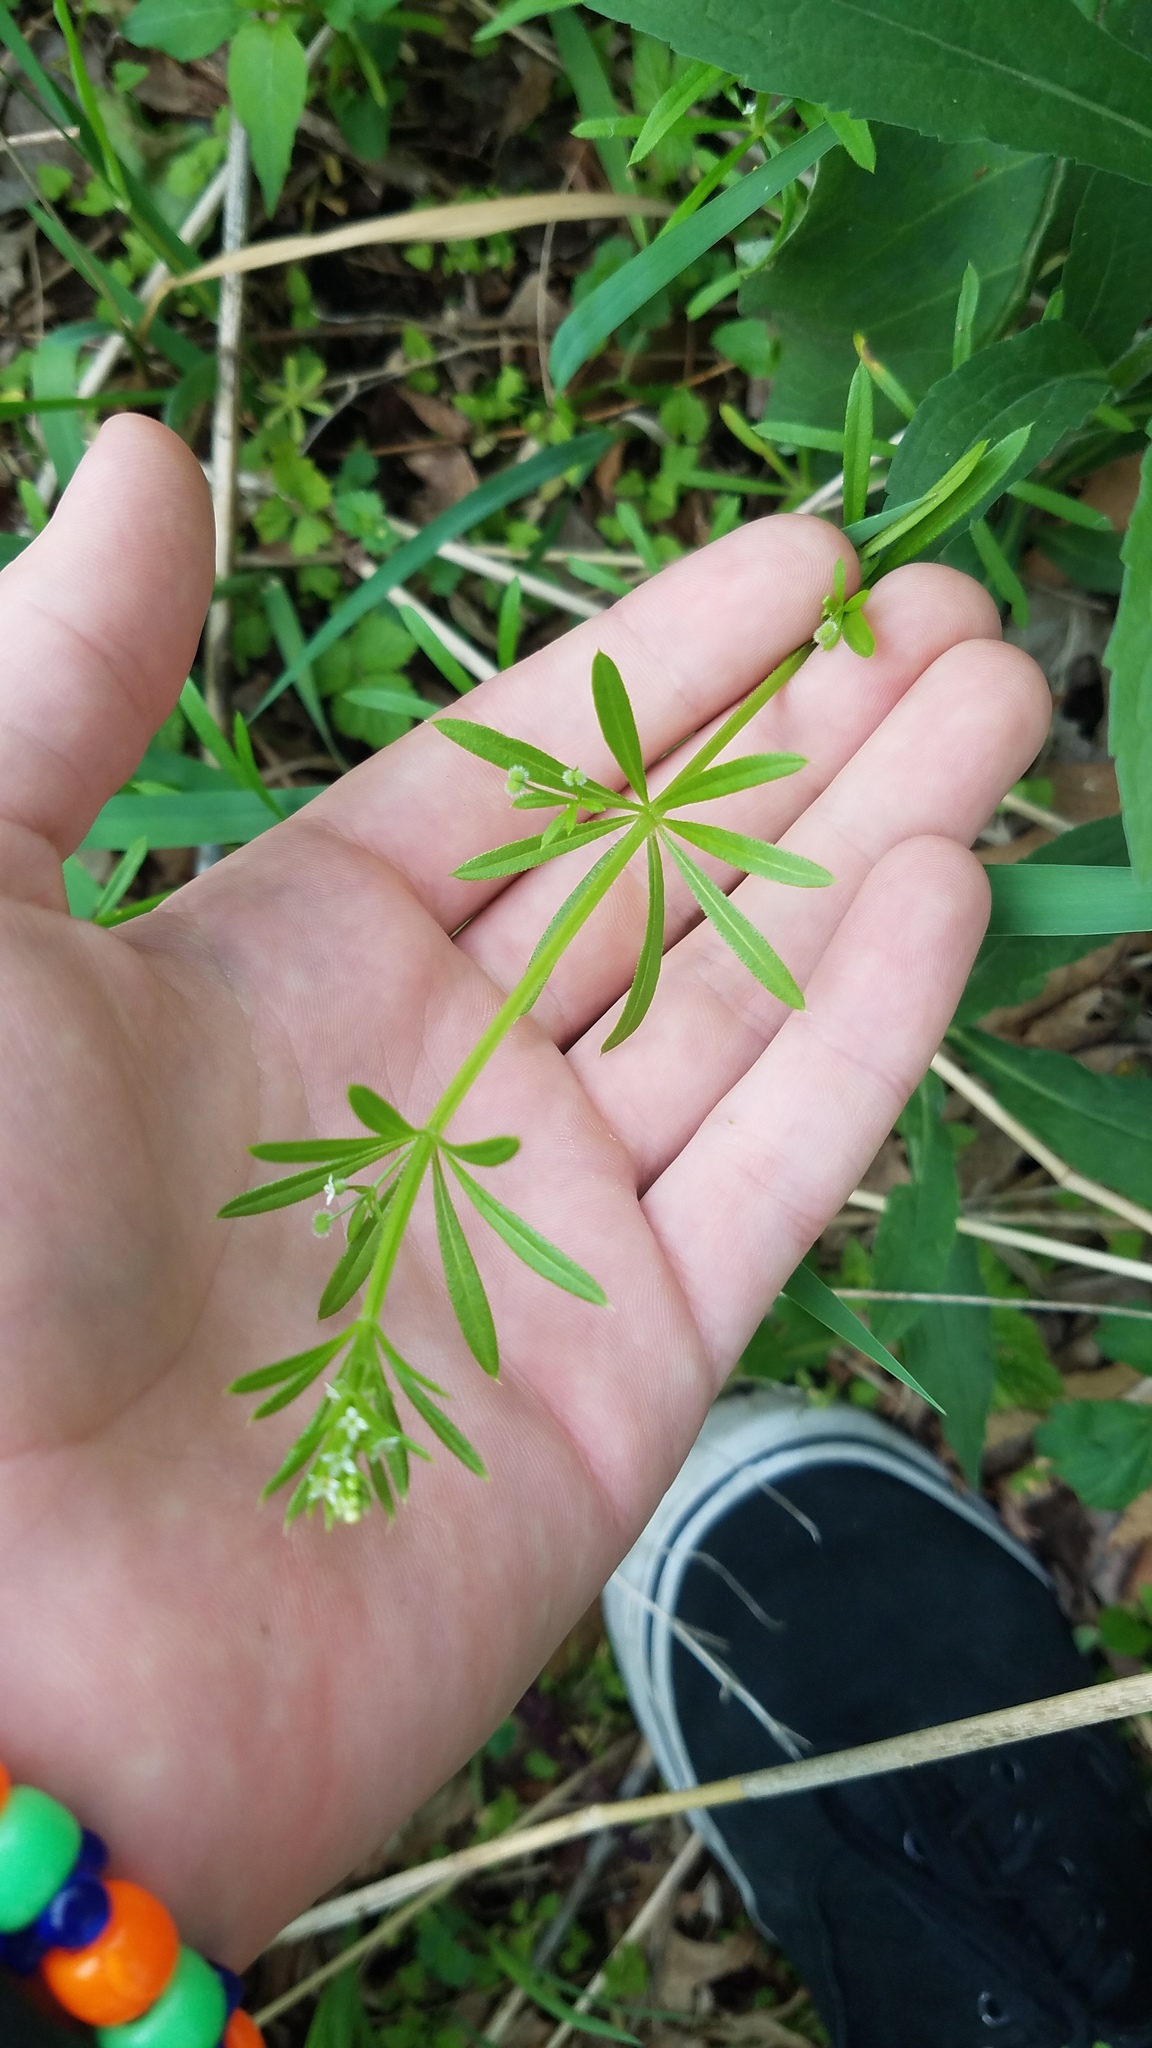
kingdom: Plantae
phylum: Tracheophyta
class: Magnoliopsida
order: Gentianales
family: Rubiaceae
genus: Galium
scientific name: Galium aparine
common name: Cleavers
